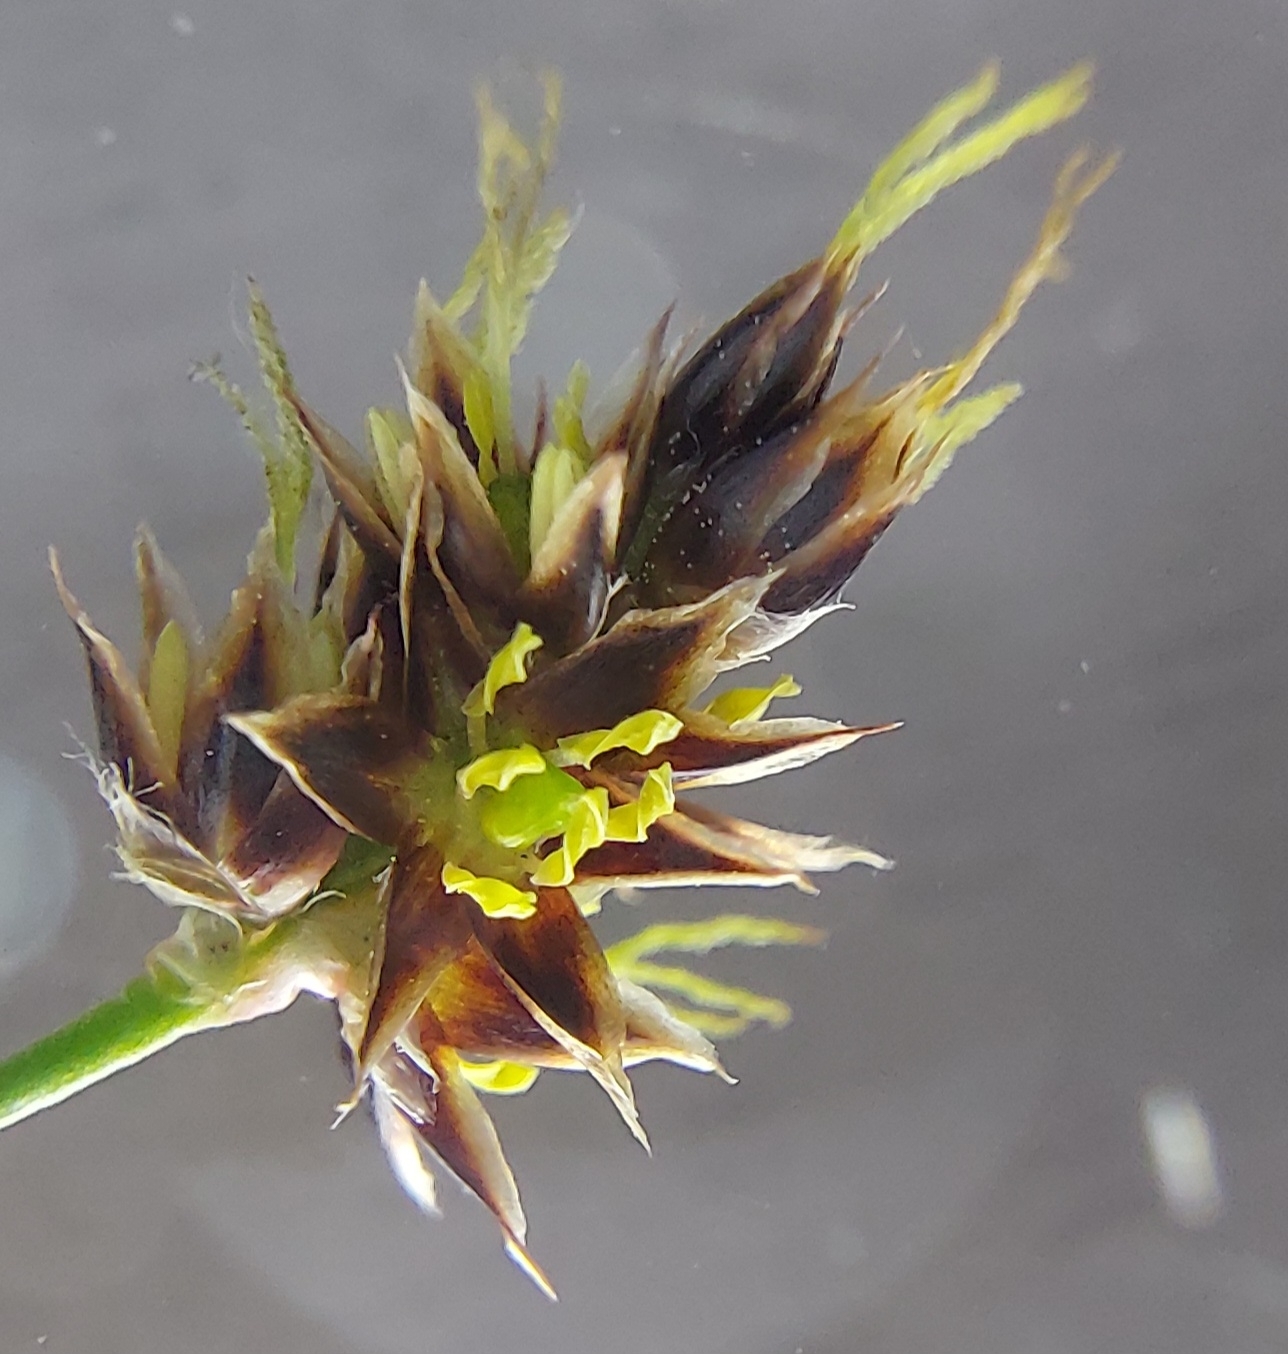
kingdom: Plantae
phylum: Tracheophyta
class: Liliopsida
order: Poales
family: Juncaceae
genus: Luzula
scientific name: Luzula campestris
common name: Field wood-rush
